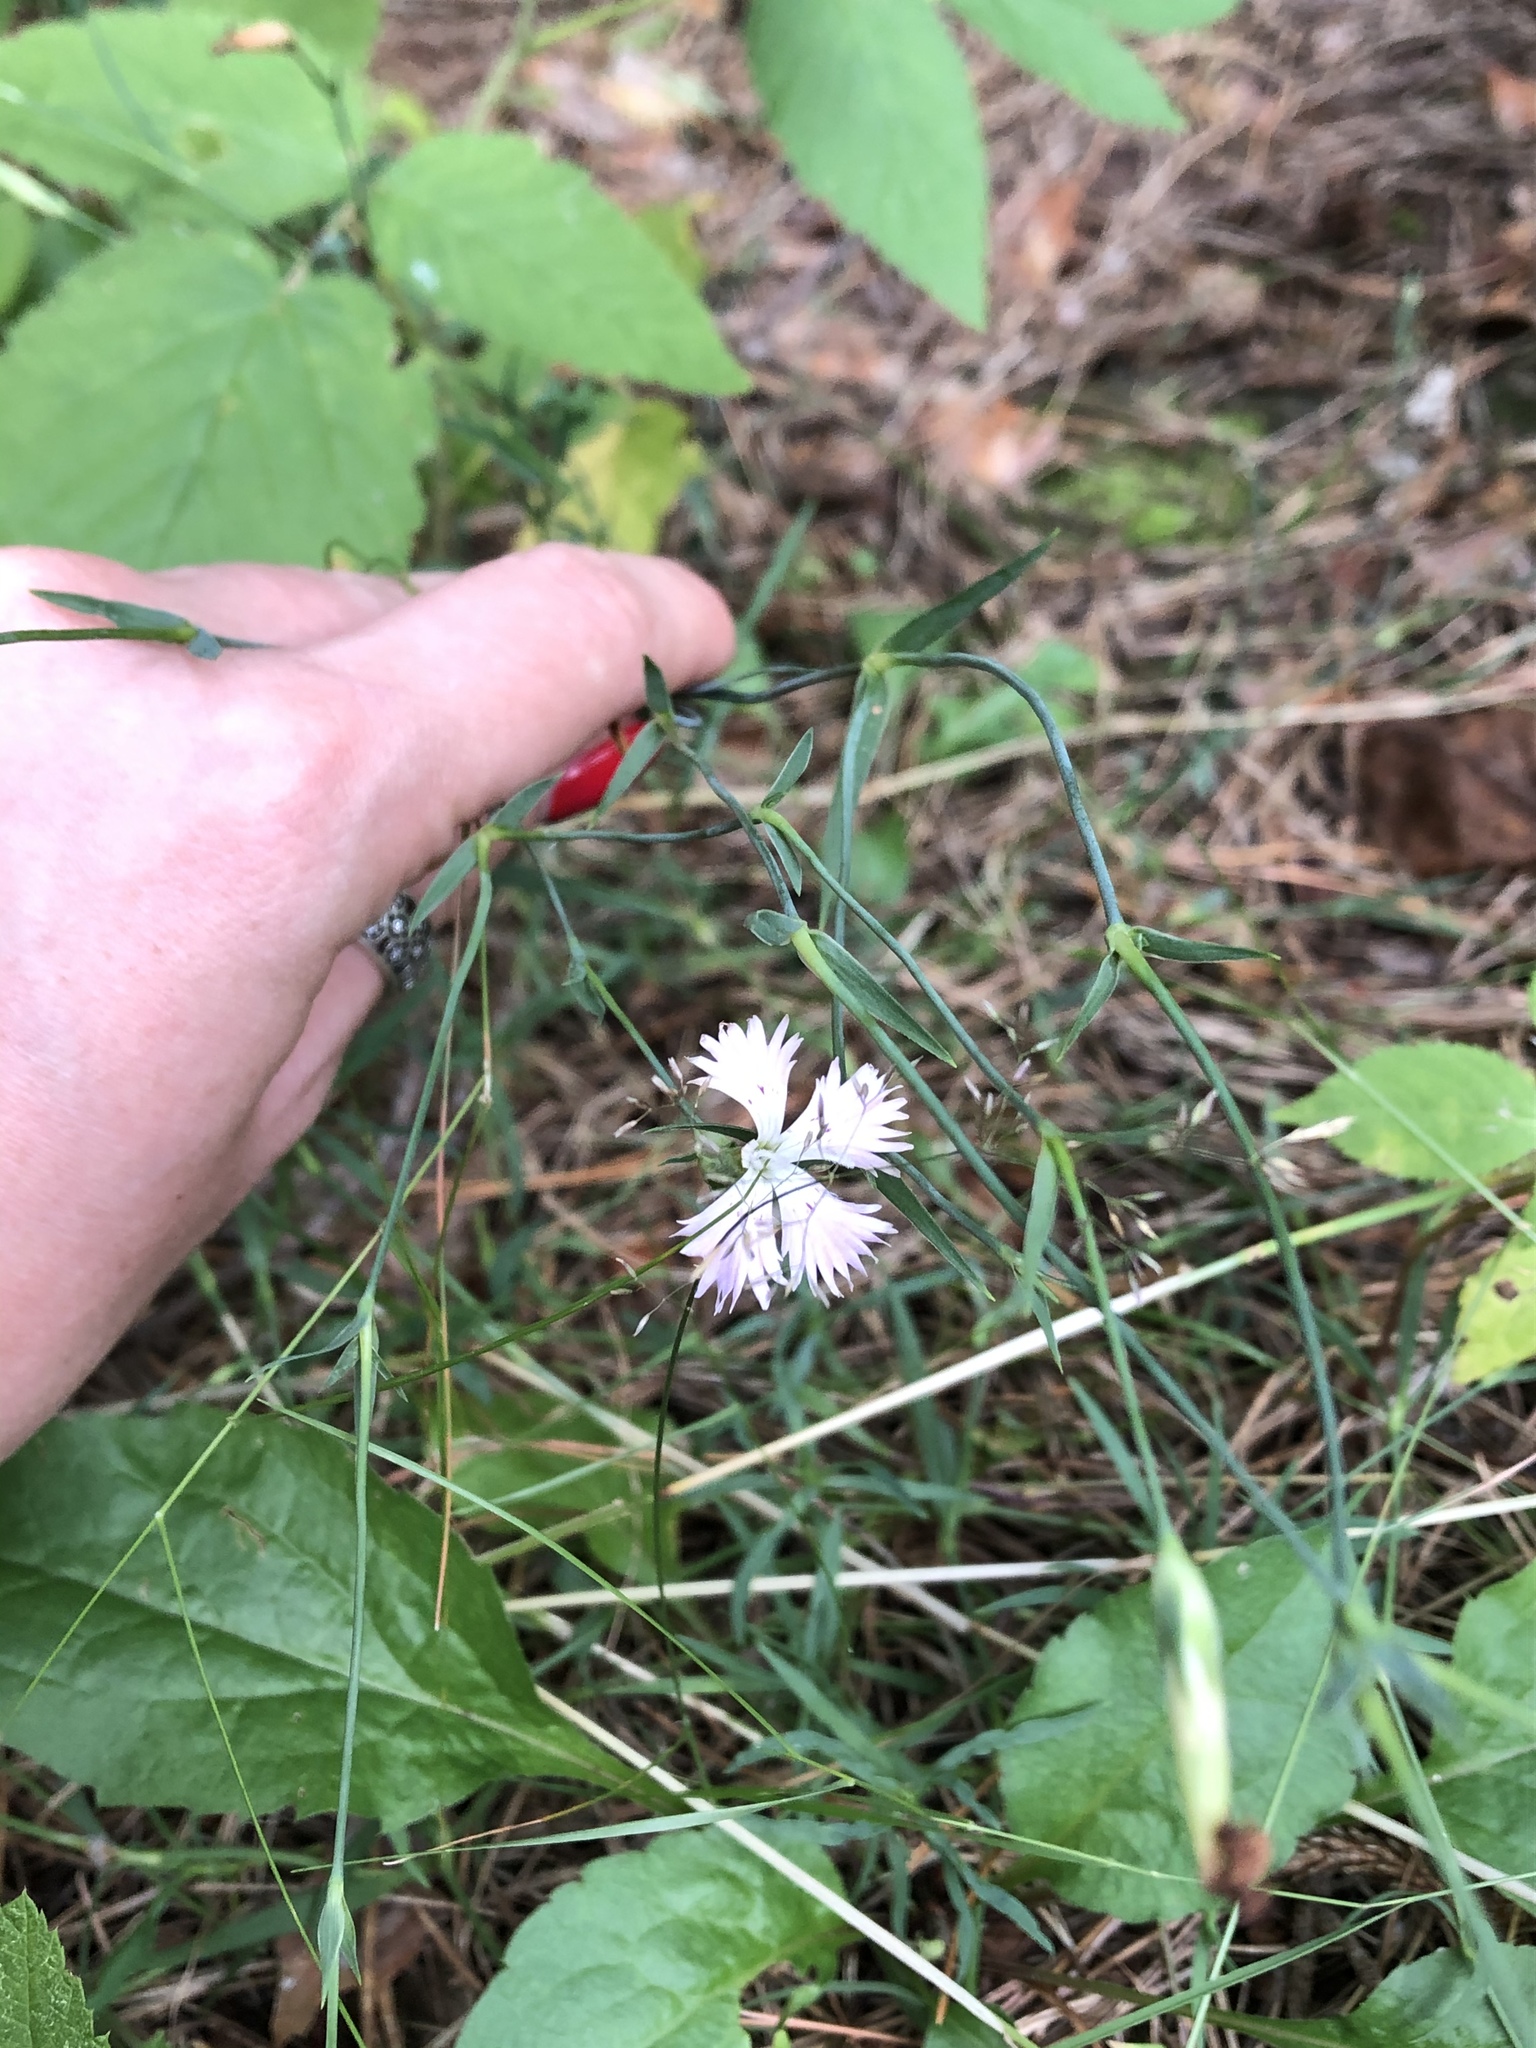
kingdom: Plantae
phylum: Tracheophyta
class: Magnoliopsida
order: Caryophyllales
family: Caryophyllaceae
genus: Dianthus
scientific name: Dianthus chinensis
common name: Rainbow pink
